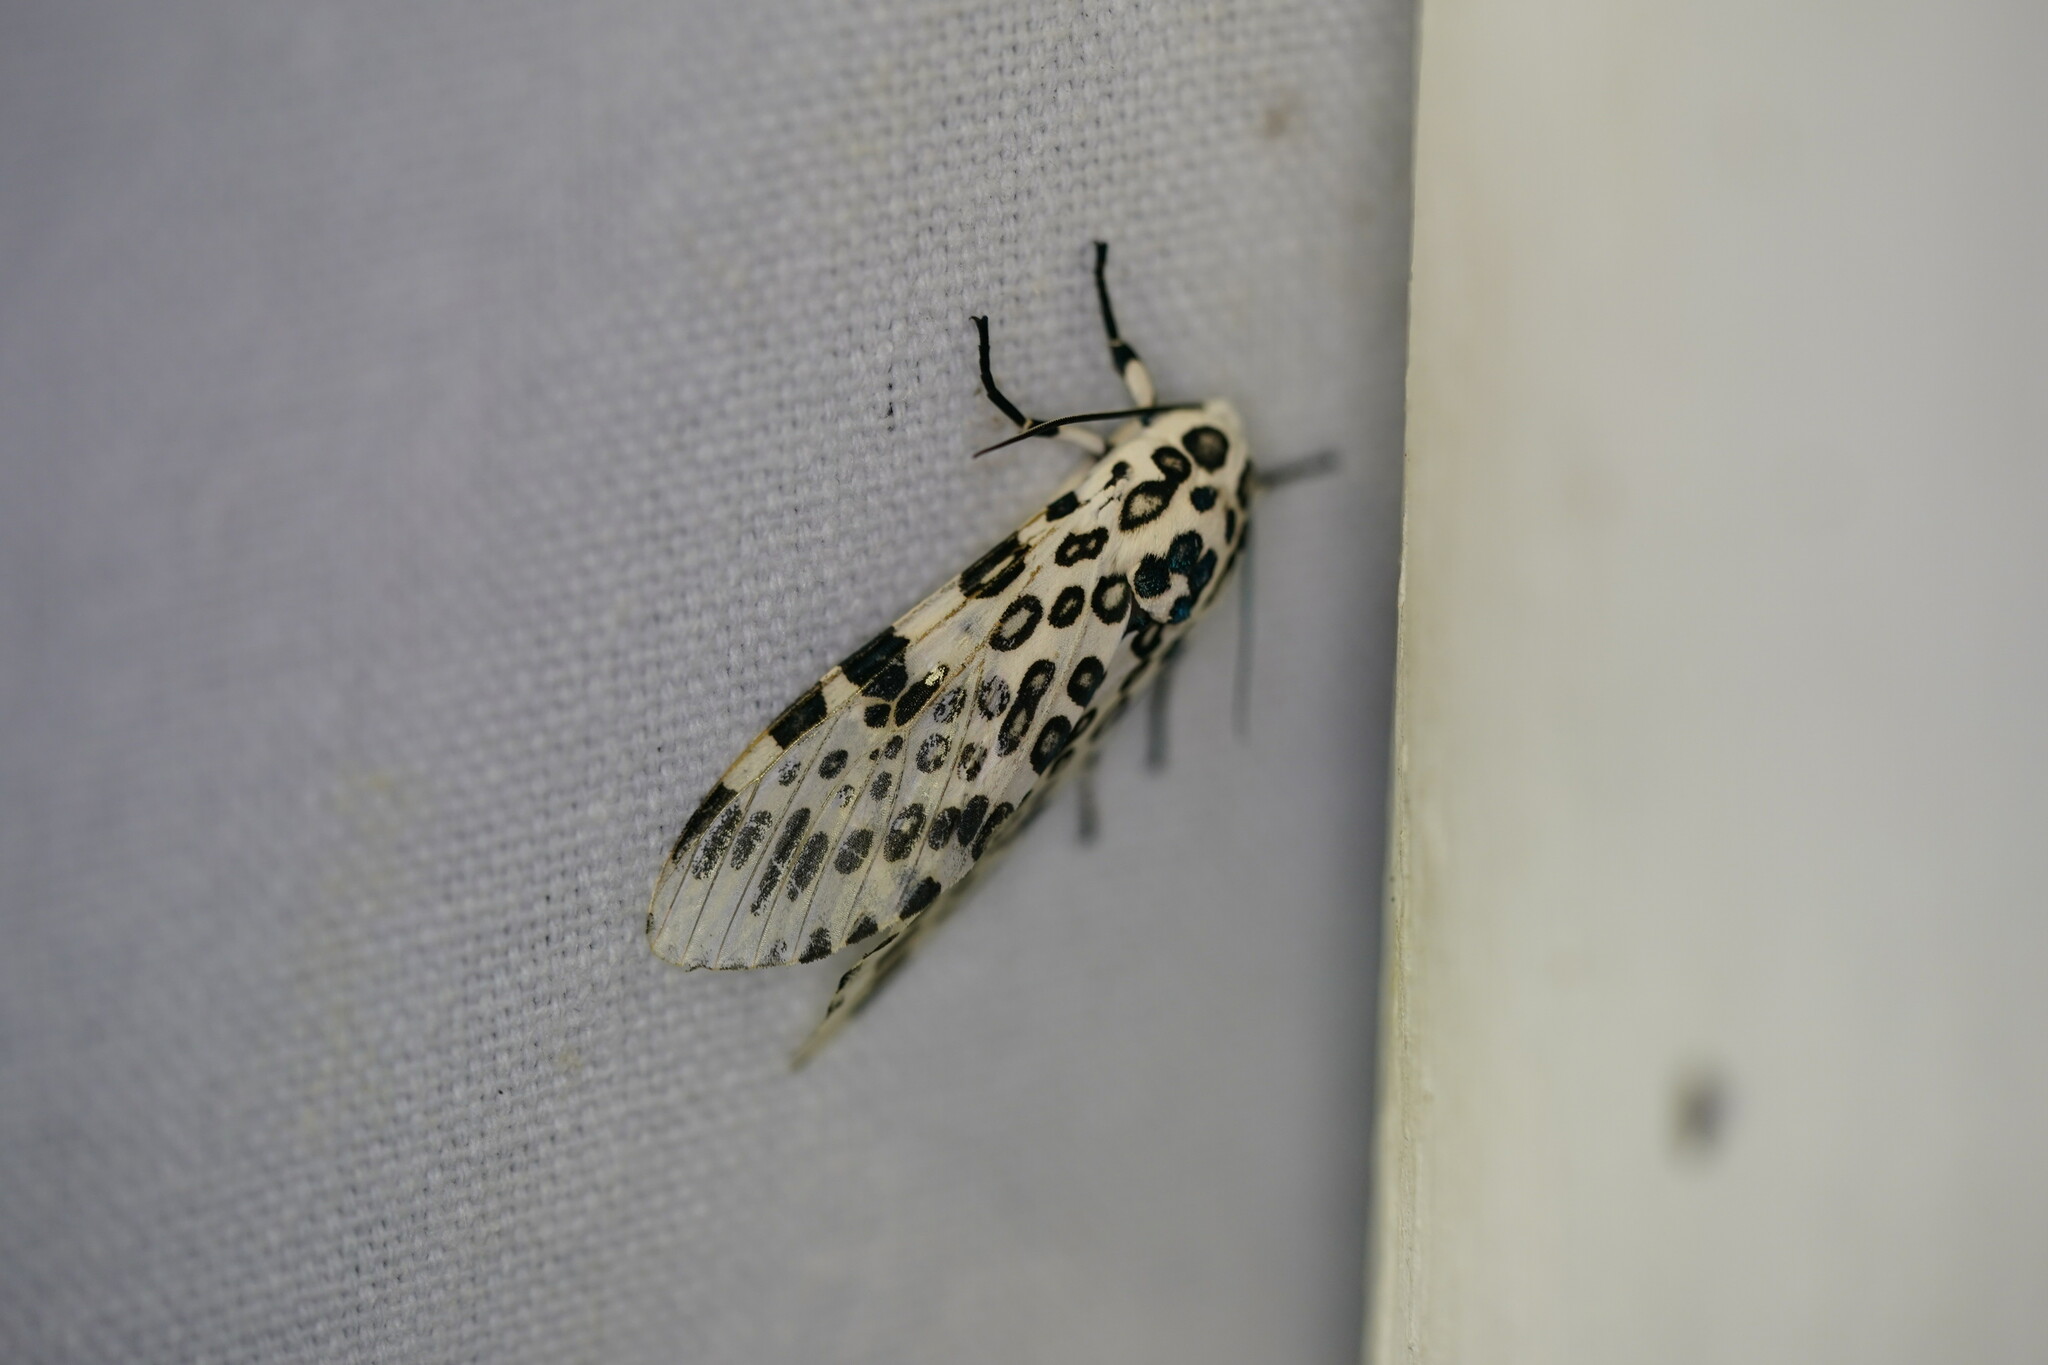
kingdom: Animalia
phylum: Arthropoda
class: Insecta
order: Lepidoptera
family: Erebidae
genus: Hypercompe
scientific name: Hypercompe scribonia
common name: Giant leopard moth
